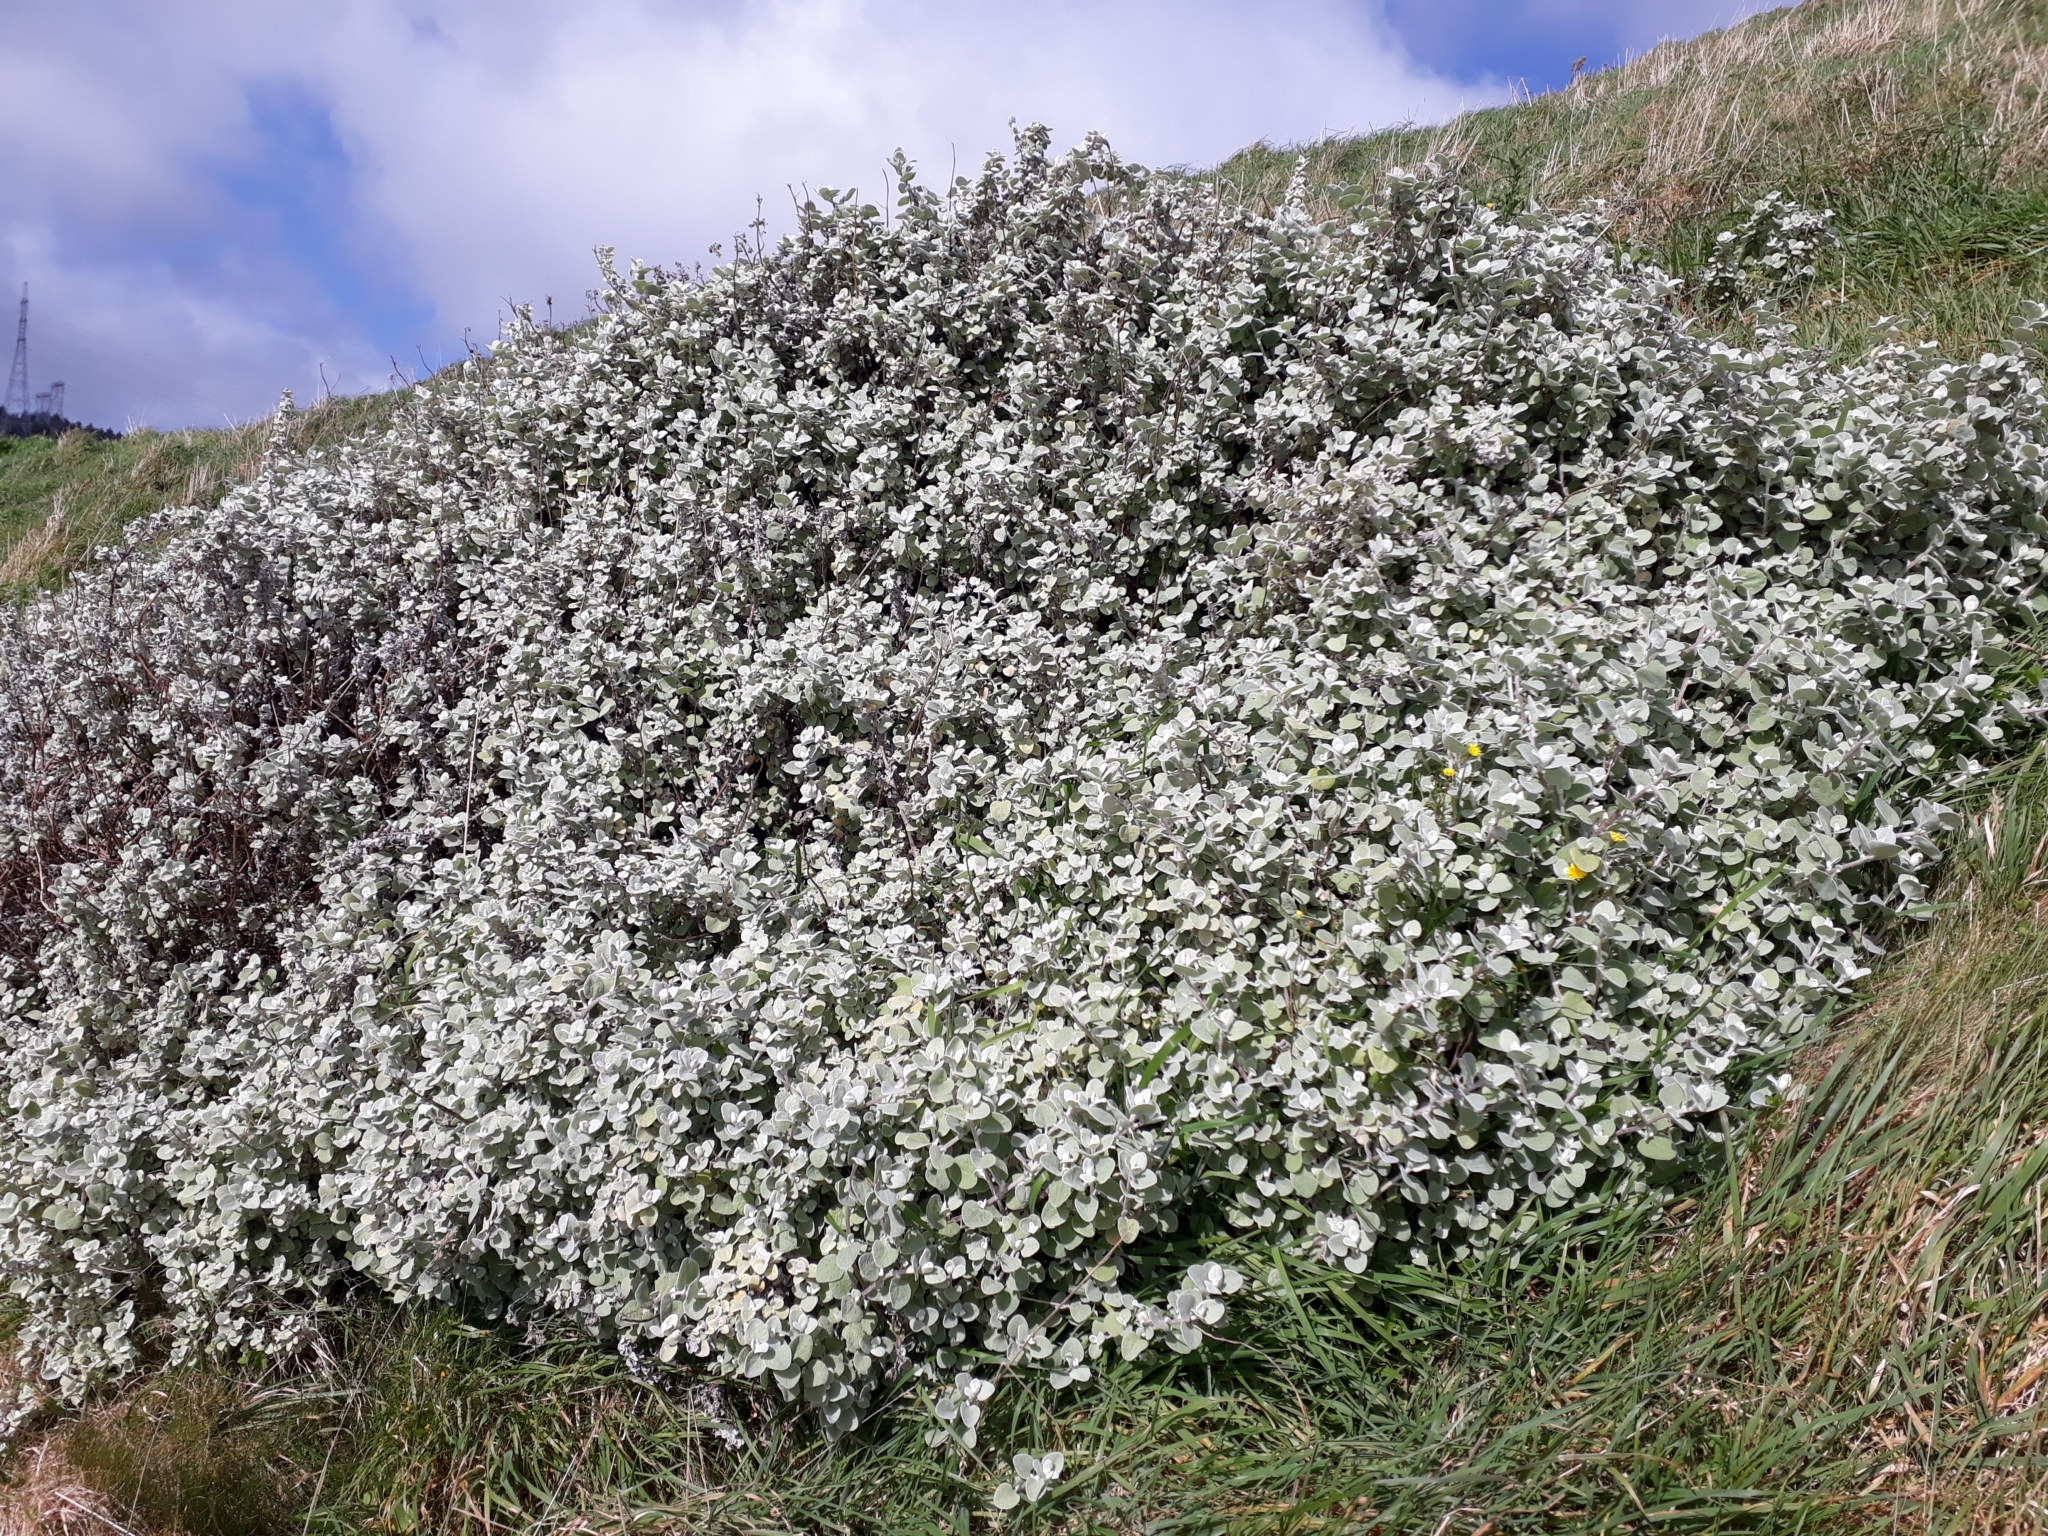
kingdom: Plantae
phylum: Tracheophyta
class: Magnoliopsida
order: Asterales
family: Asteraceae
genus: Helichrysum
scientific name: Helichrysum petiolare
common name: Licorice-plant
